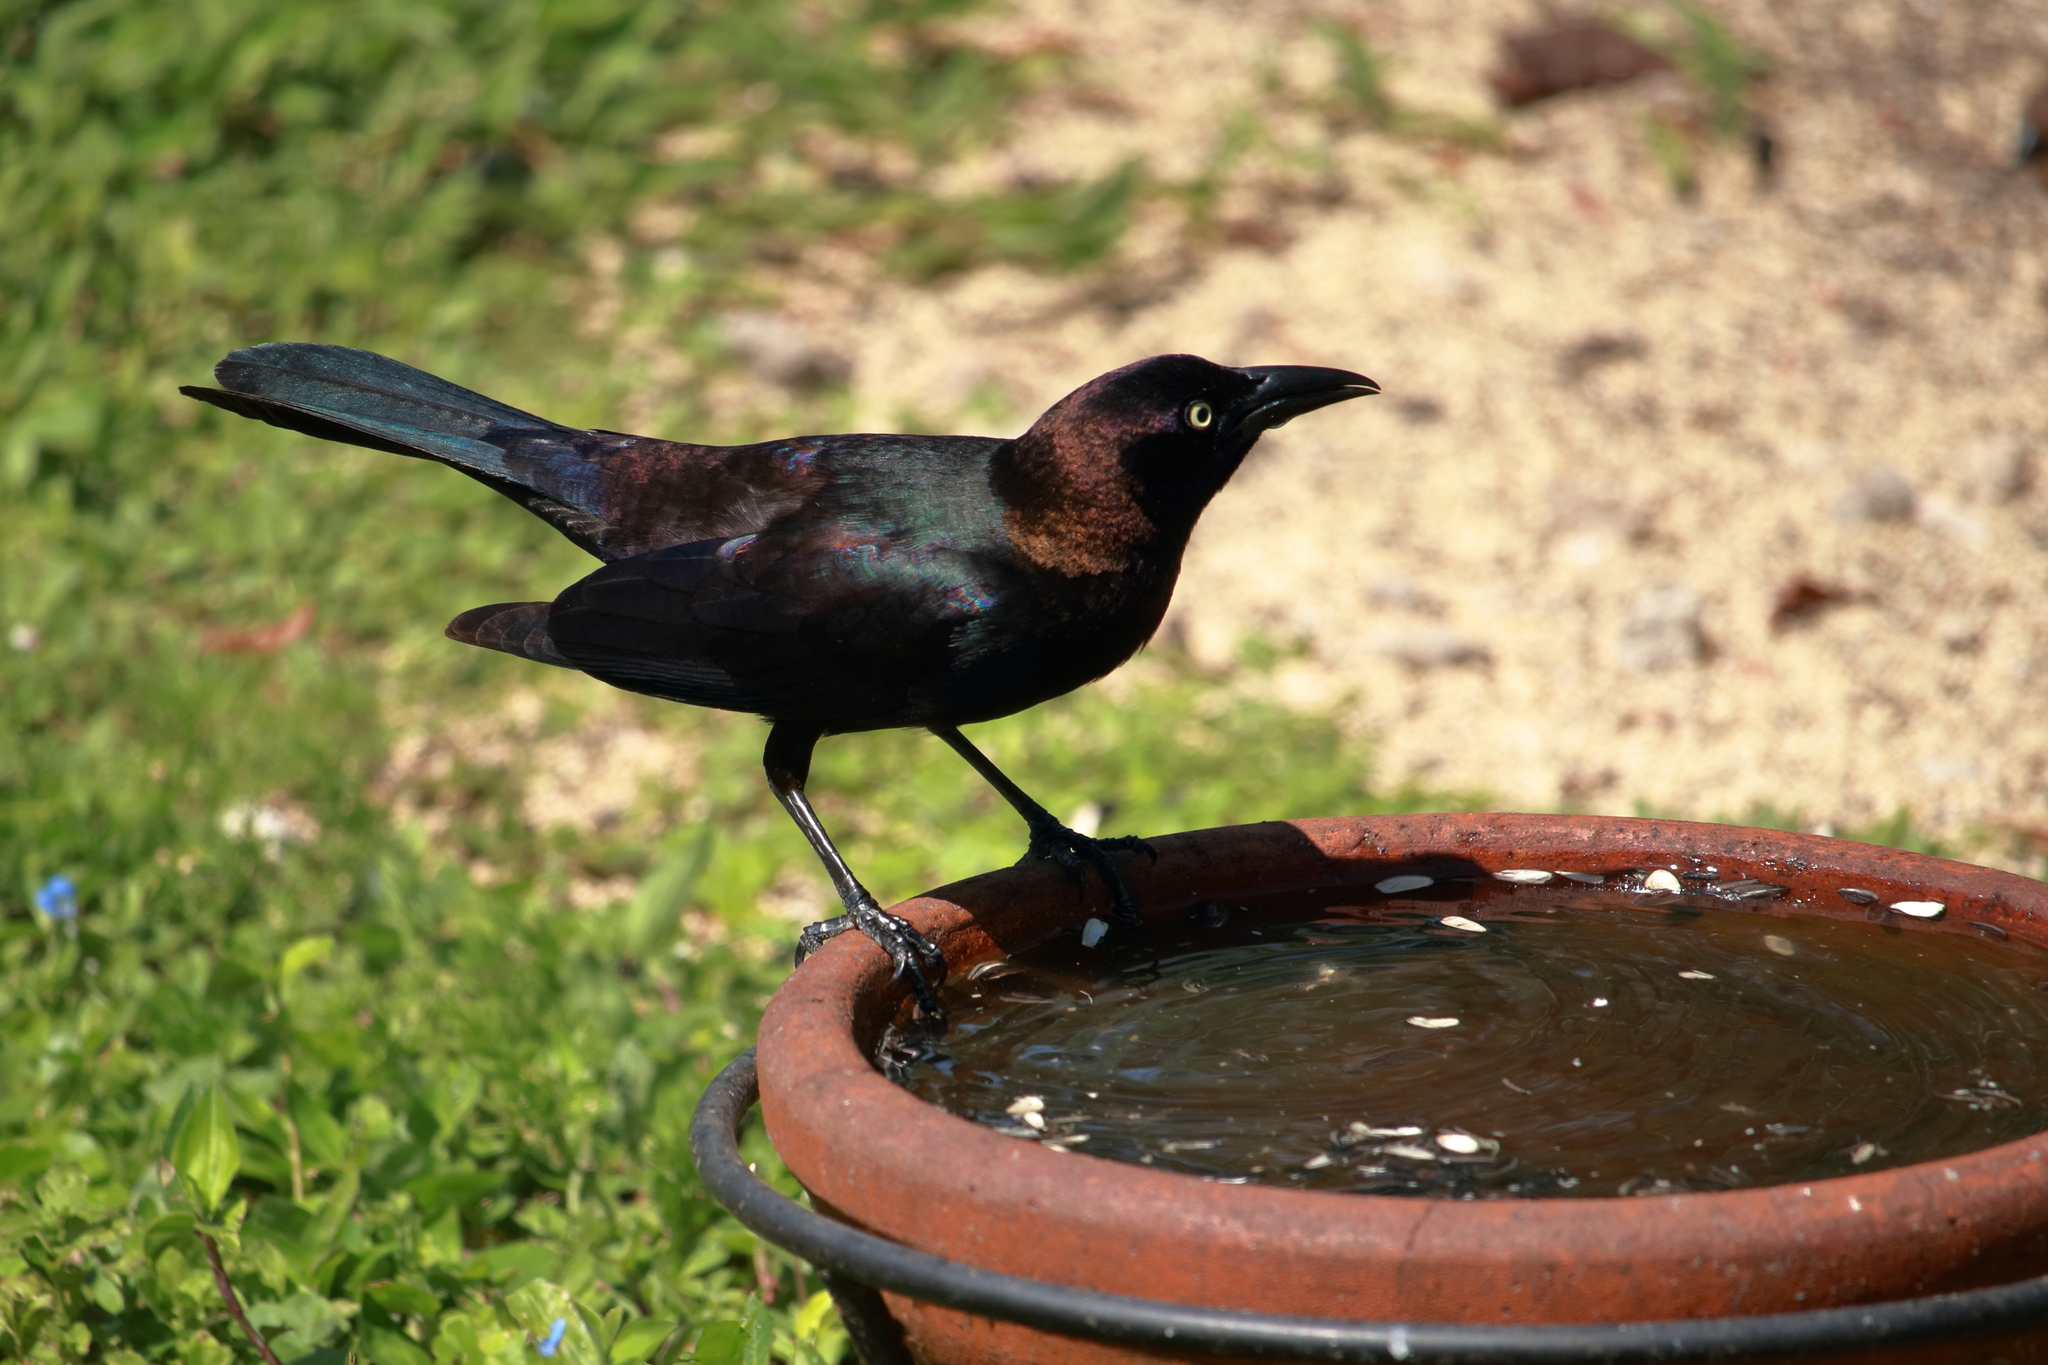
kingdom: Animalia
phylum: Chordata
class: Aves
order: Passeriformes
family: Icteridae
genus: Quiscalus
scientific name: Quiscalus quiscula
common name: Common grackle
